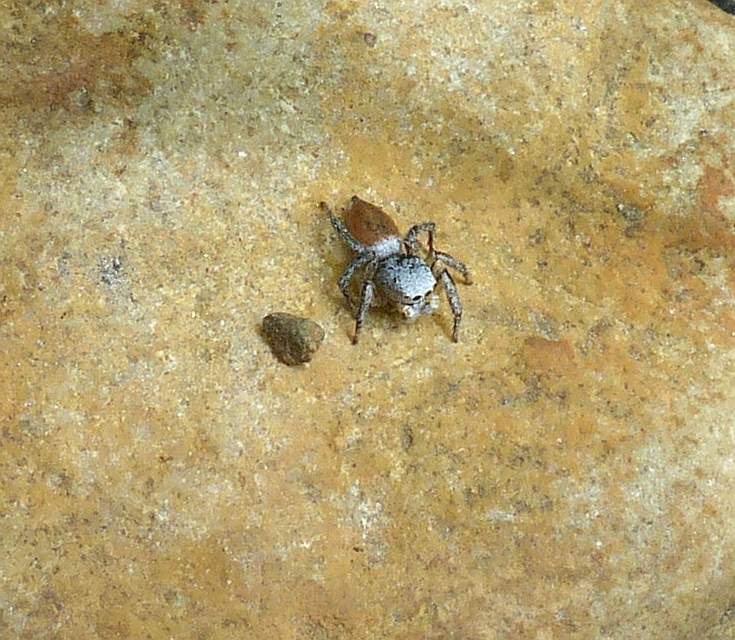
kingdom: Animalia
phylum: Arthropoda
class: Arachnida
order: Araneae
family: Salticidae
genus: Habronattus
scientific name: Habronattus decorus
